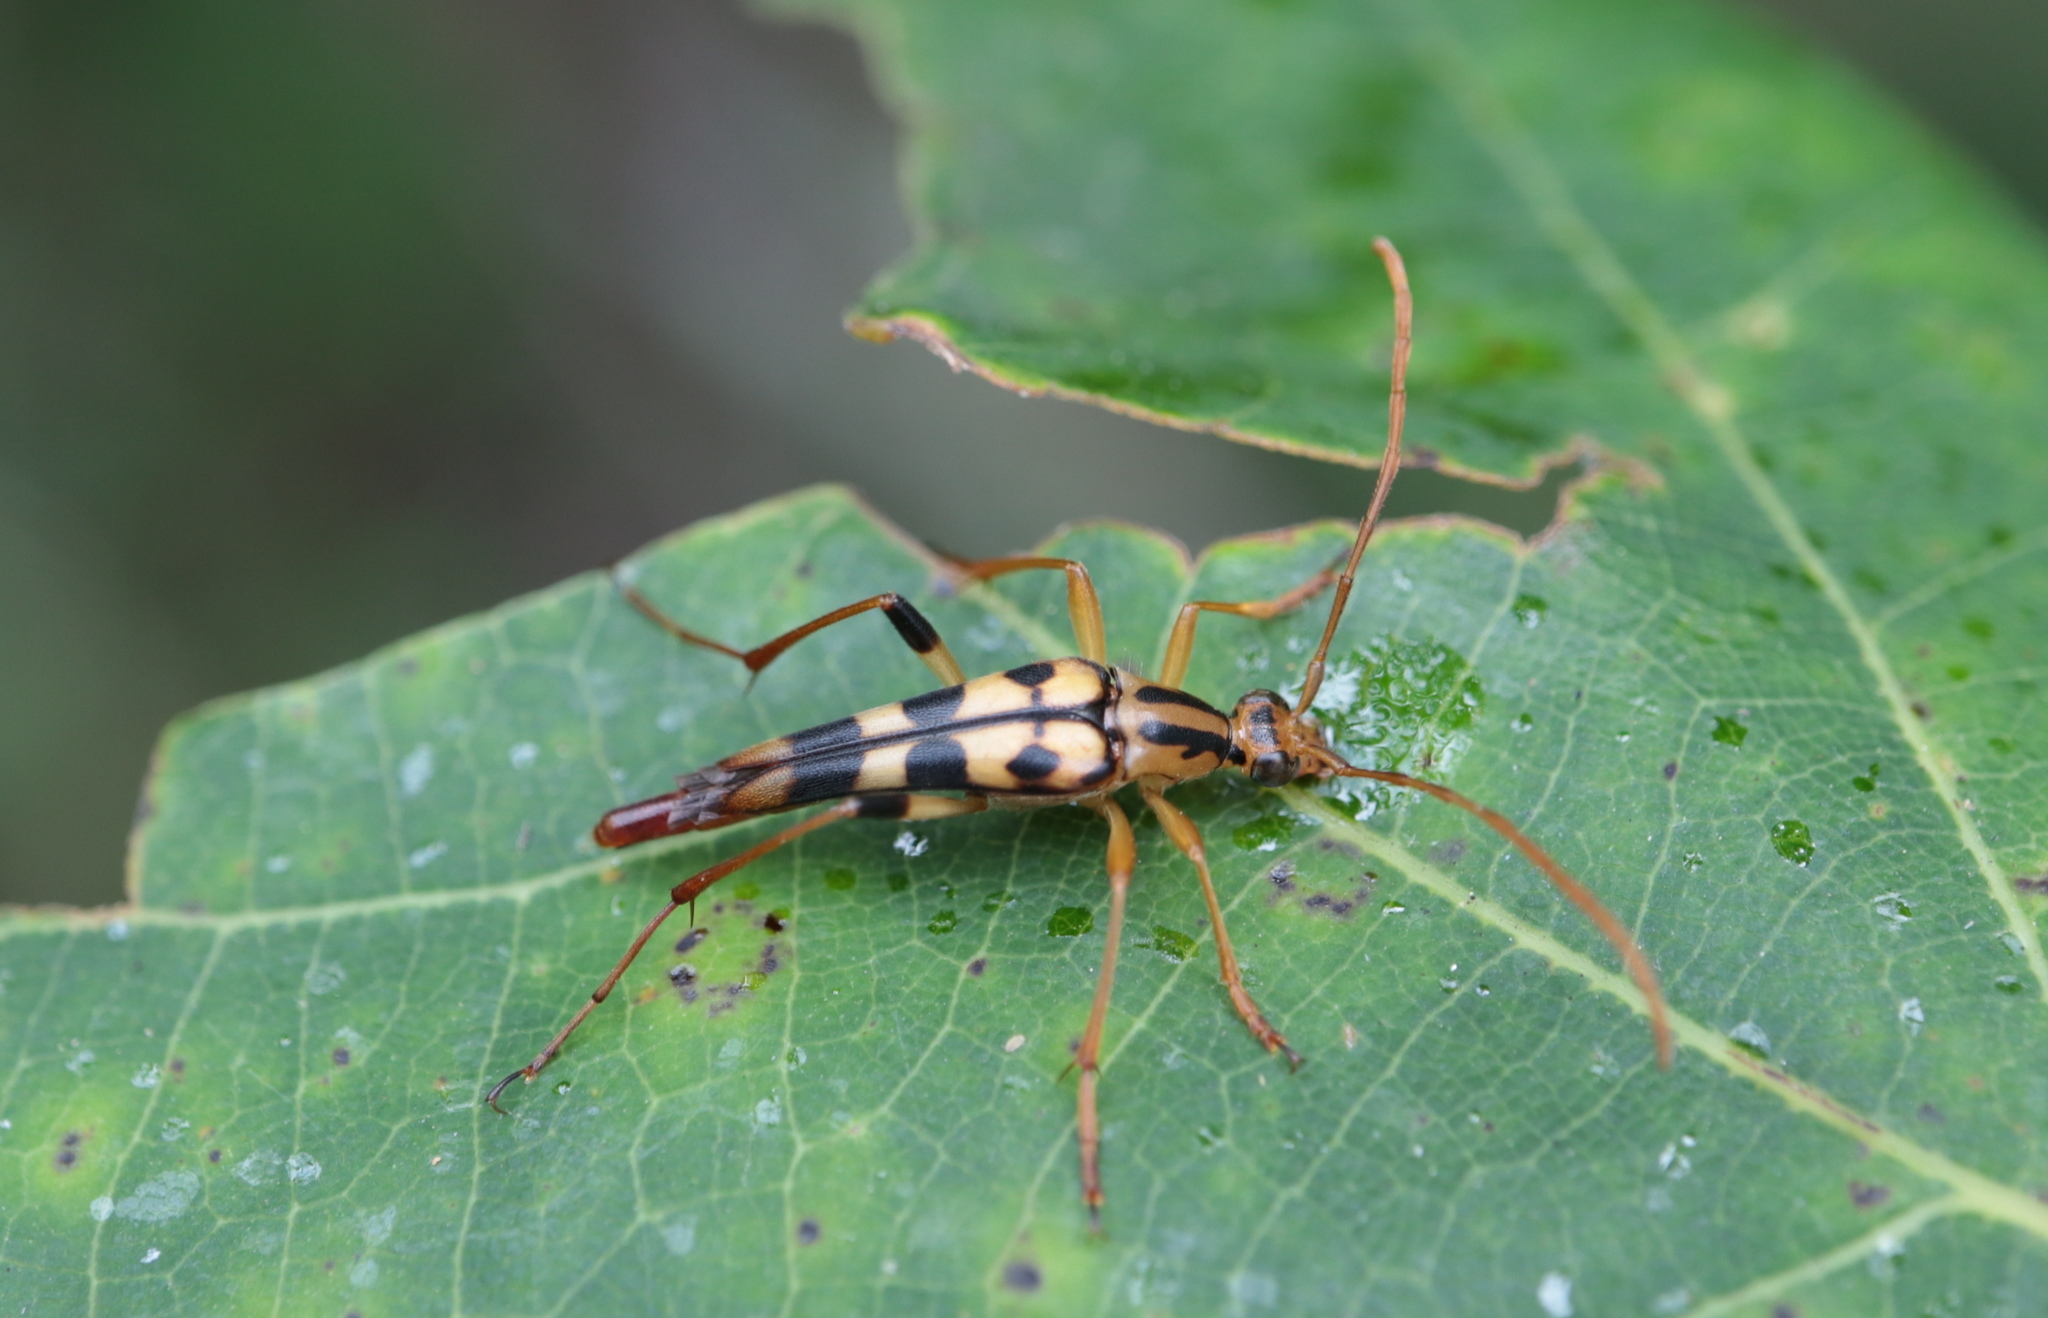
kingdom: Animalia
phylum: Arthropoda
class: Insecta
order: Coleoptera
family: Cerambycidae
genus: Strangalia
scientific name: Strangalia luteicornis
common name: Yellow-horned flower longhorn beetle
